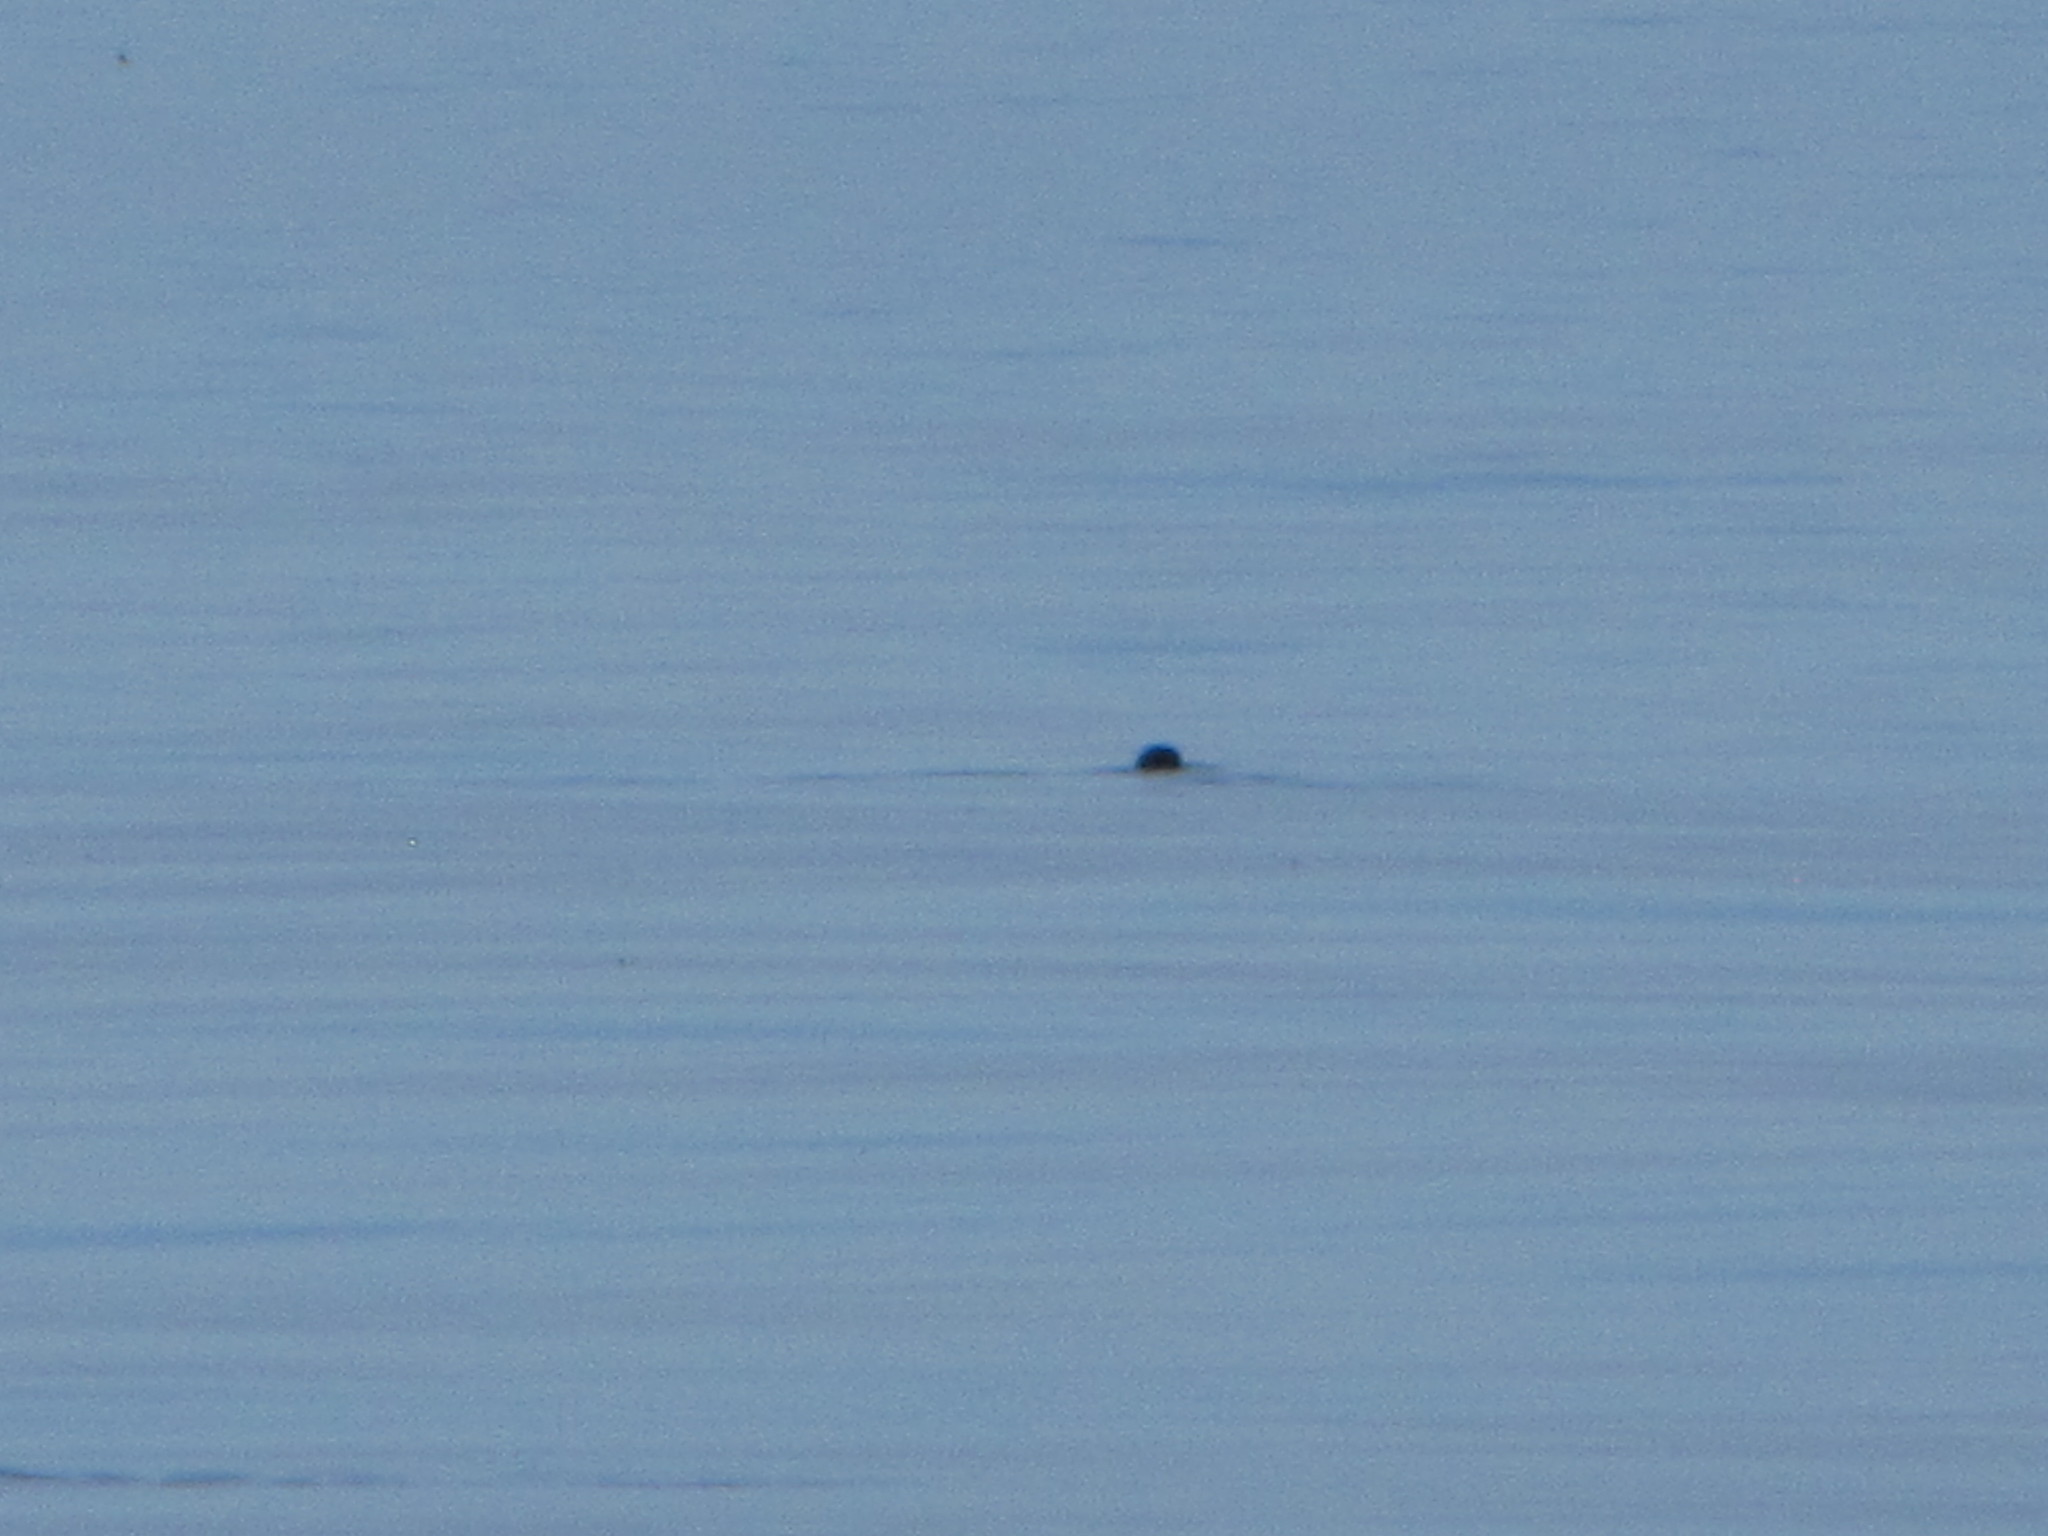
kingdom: Animalia
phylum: Chordata
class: Mammalia
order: Carnivora
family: Phocidae
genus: Phoca
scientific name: Phoca vitulina
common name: Harbor seal
